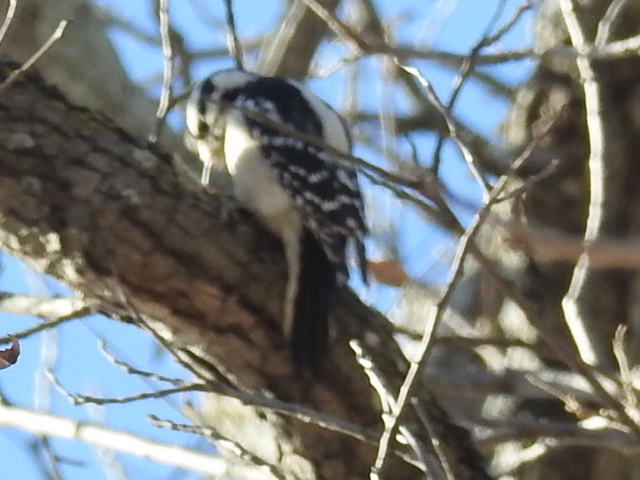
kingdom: Animalia
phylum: Chordata
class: Aves
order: Piciformes
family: Picidae
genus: Dryobates
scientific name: Dryobates pubescens
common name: Downy woodpecker
